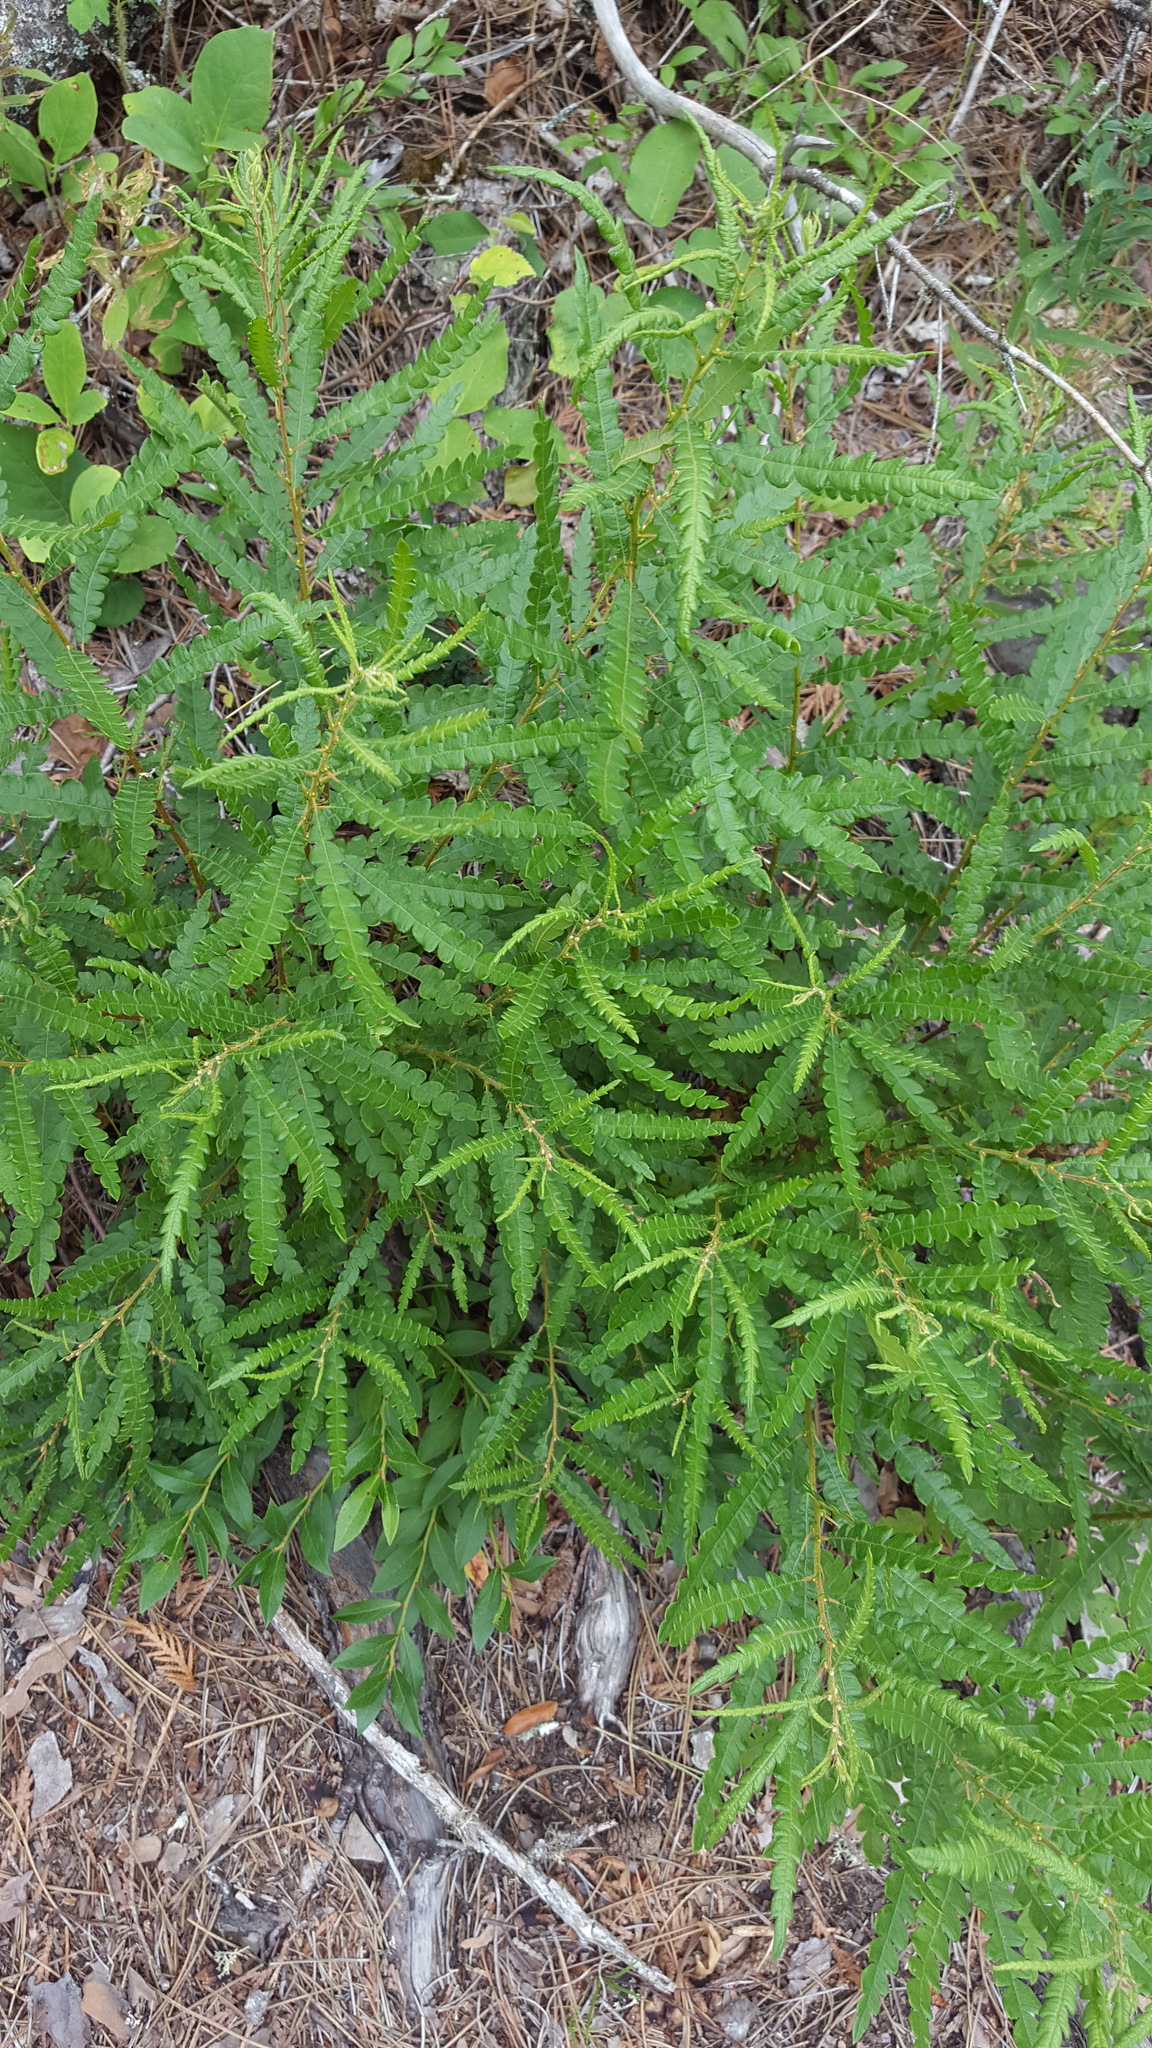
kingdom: Plantae
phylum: Tracheophyta
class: Magnoliopsida
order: Fagales
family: Myricaceae
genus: Comptonia
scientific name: Comptonia peregrina
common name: Sweet-fern
